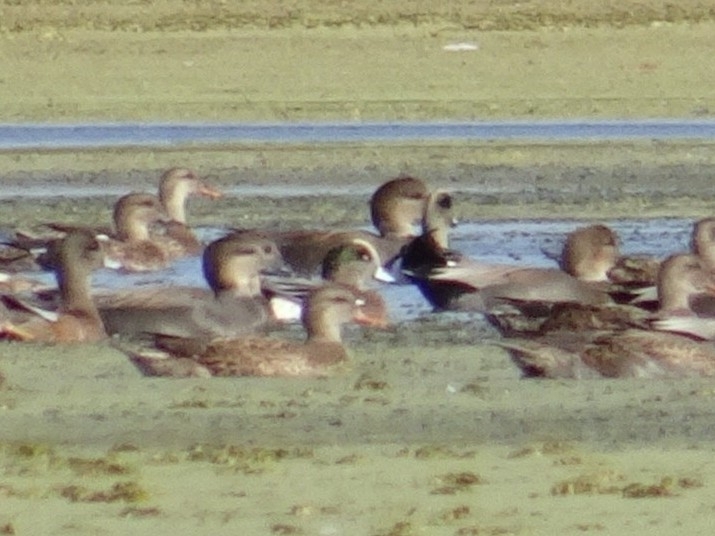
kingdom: Animalia
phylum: Chordata
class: Aves
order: Anseriformes
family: Anatidae
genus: Mareca
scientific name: Mareca americana
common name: American wigeon
